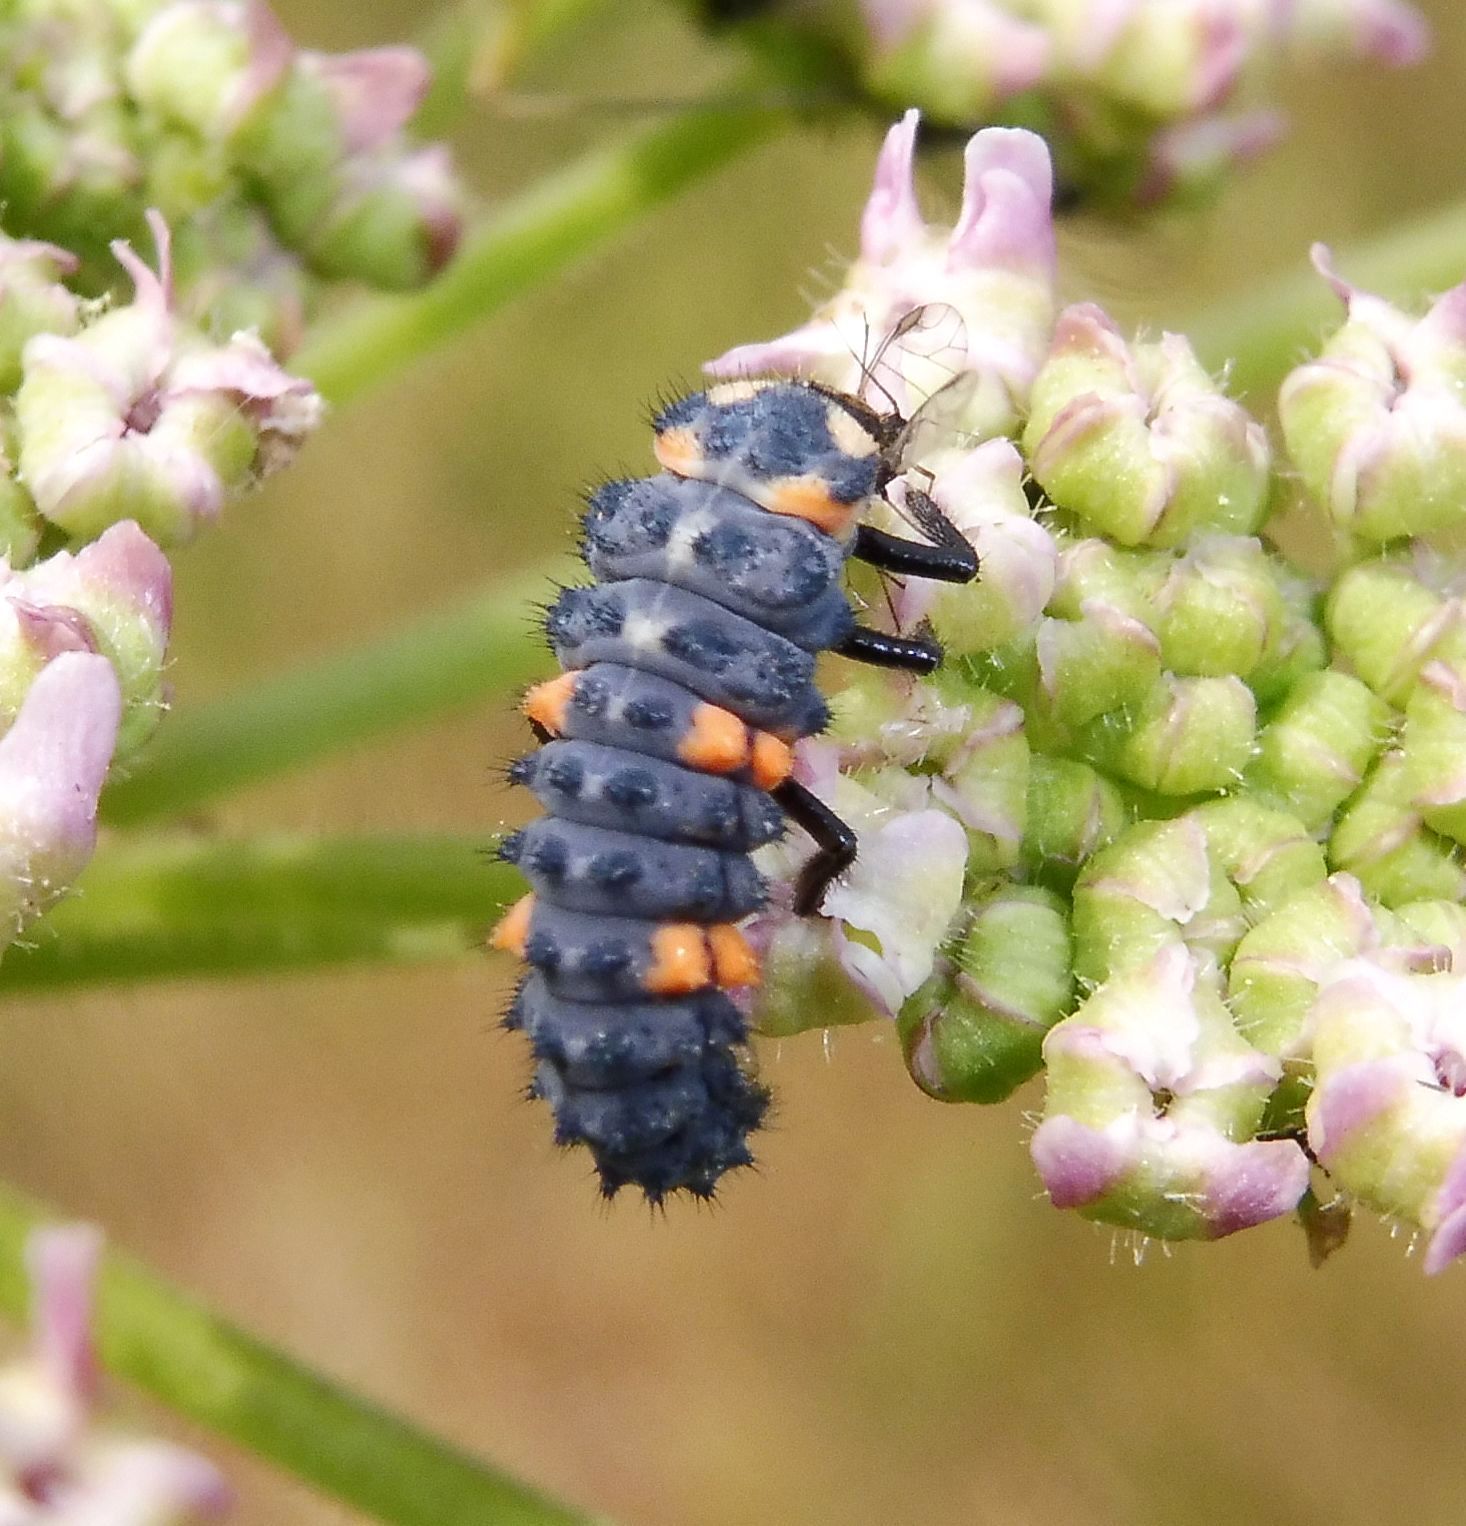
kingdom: Animalia
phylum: Arthropoda
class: Insecta
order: Coleoptera
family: Coccinellidae
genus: Coccinella
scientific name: Coccinella septempunctata
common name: Sevenspotted lady beetle
